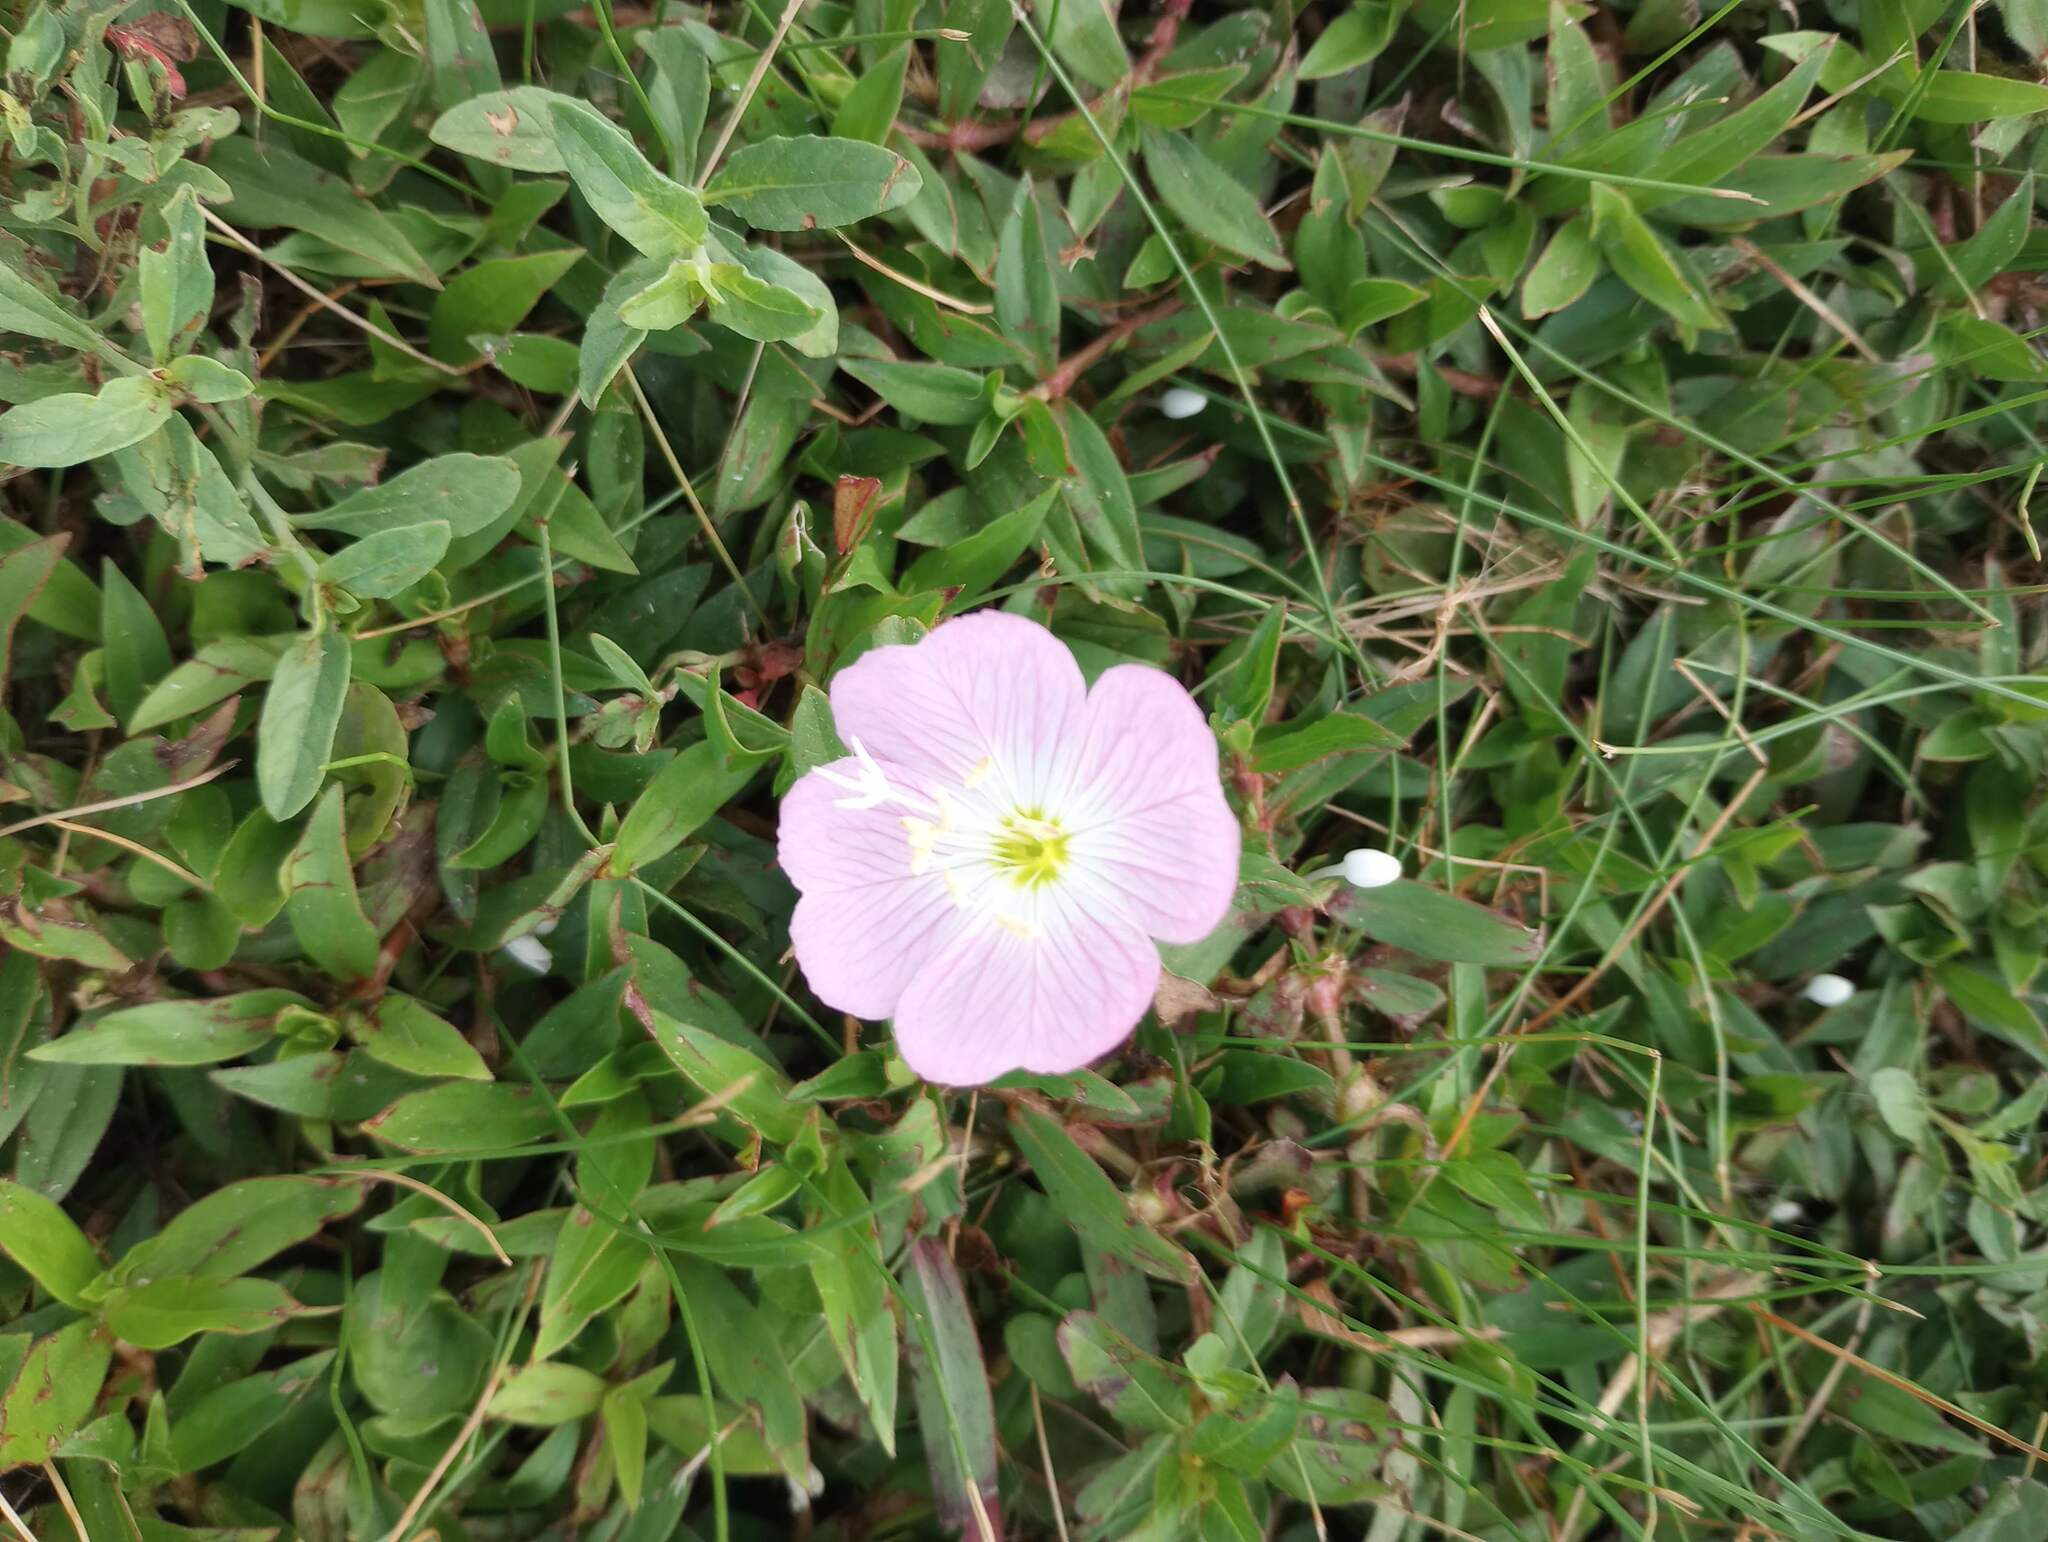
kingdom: Plantae
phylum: Tracheophyta
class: Magnoliopsida
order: Myrtales
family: Onagraceae
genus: Oenothera
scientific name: Oenothera speciosa
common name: White evening-primrose
